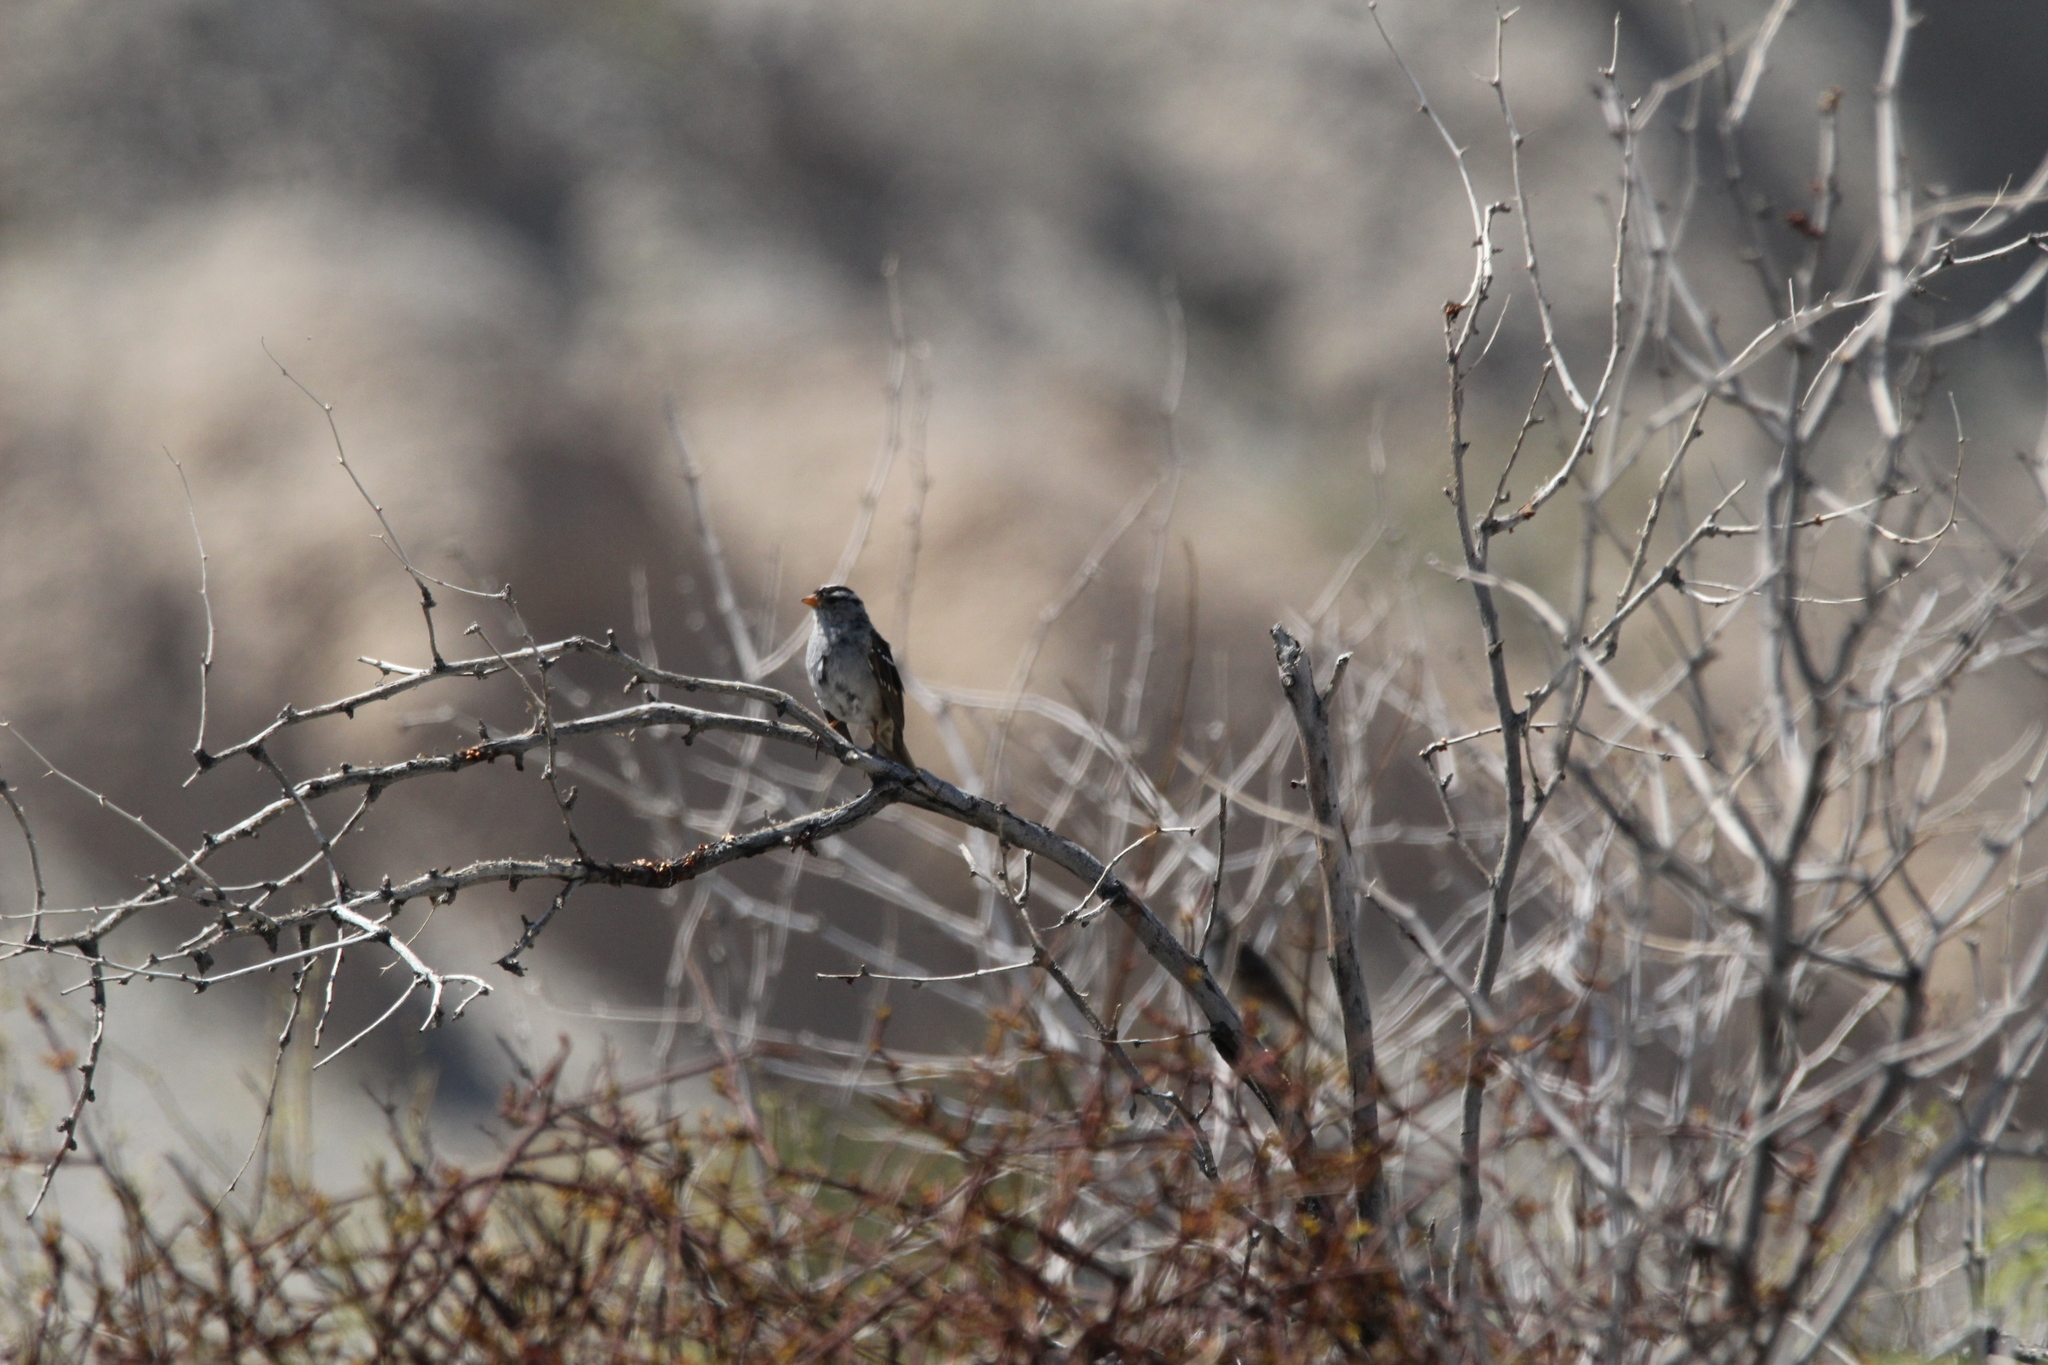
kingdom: Animalia
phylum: Chordata
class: Aves
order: Passeriformes
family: Passerellidae
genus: Zonotrichia
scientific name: Zonotrichia leucophrys
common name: White-crowned sparrow
